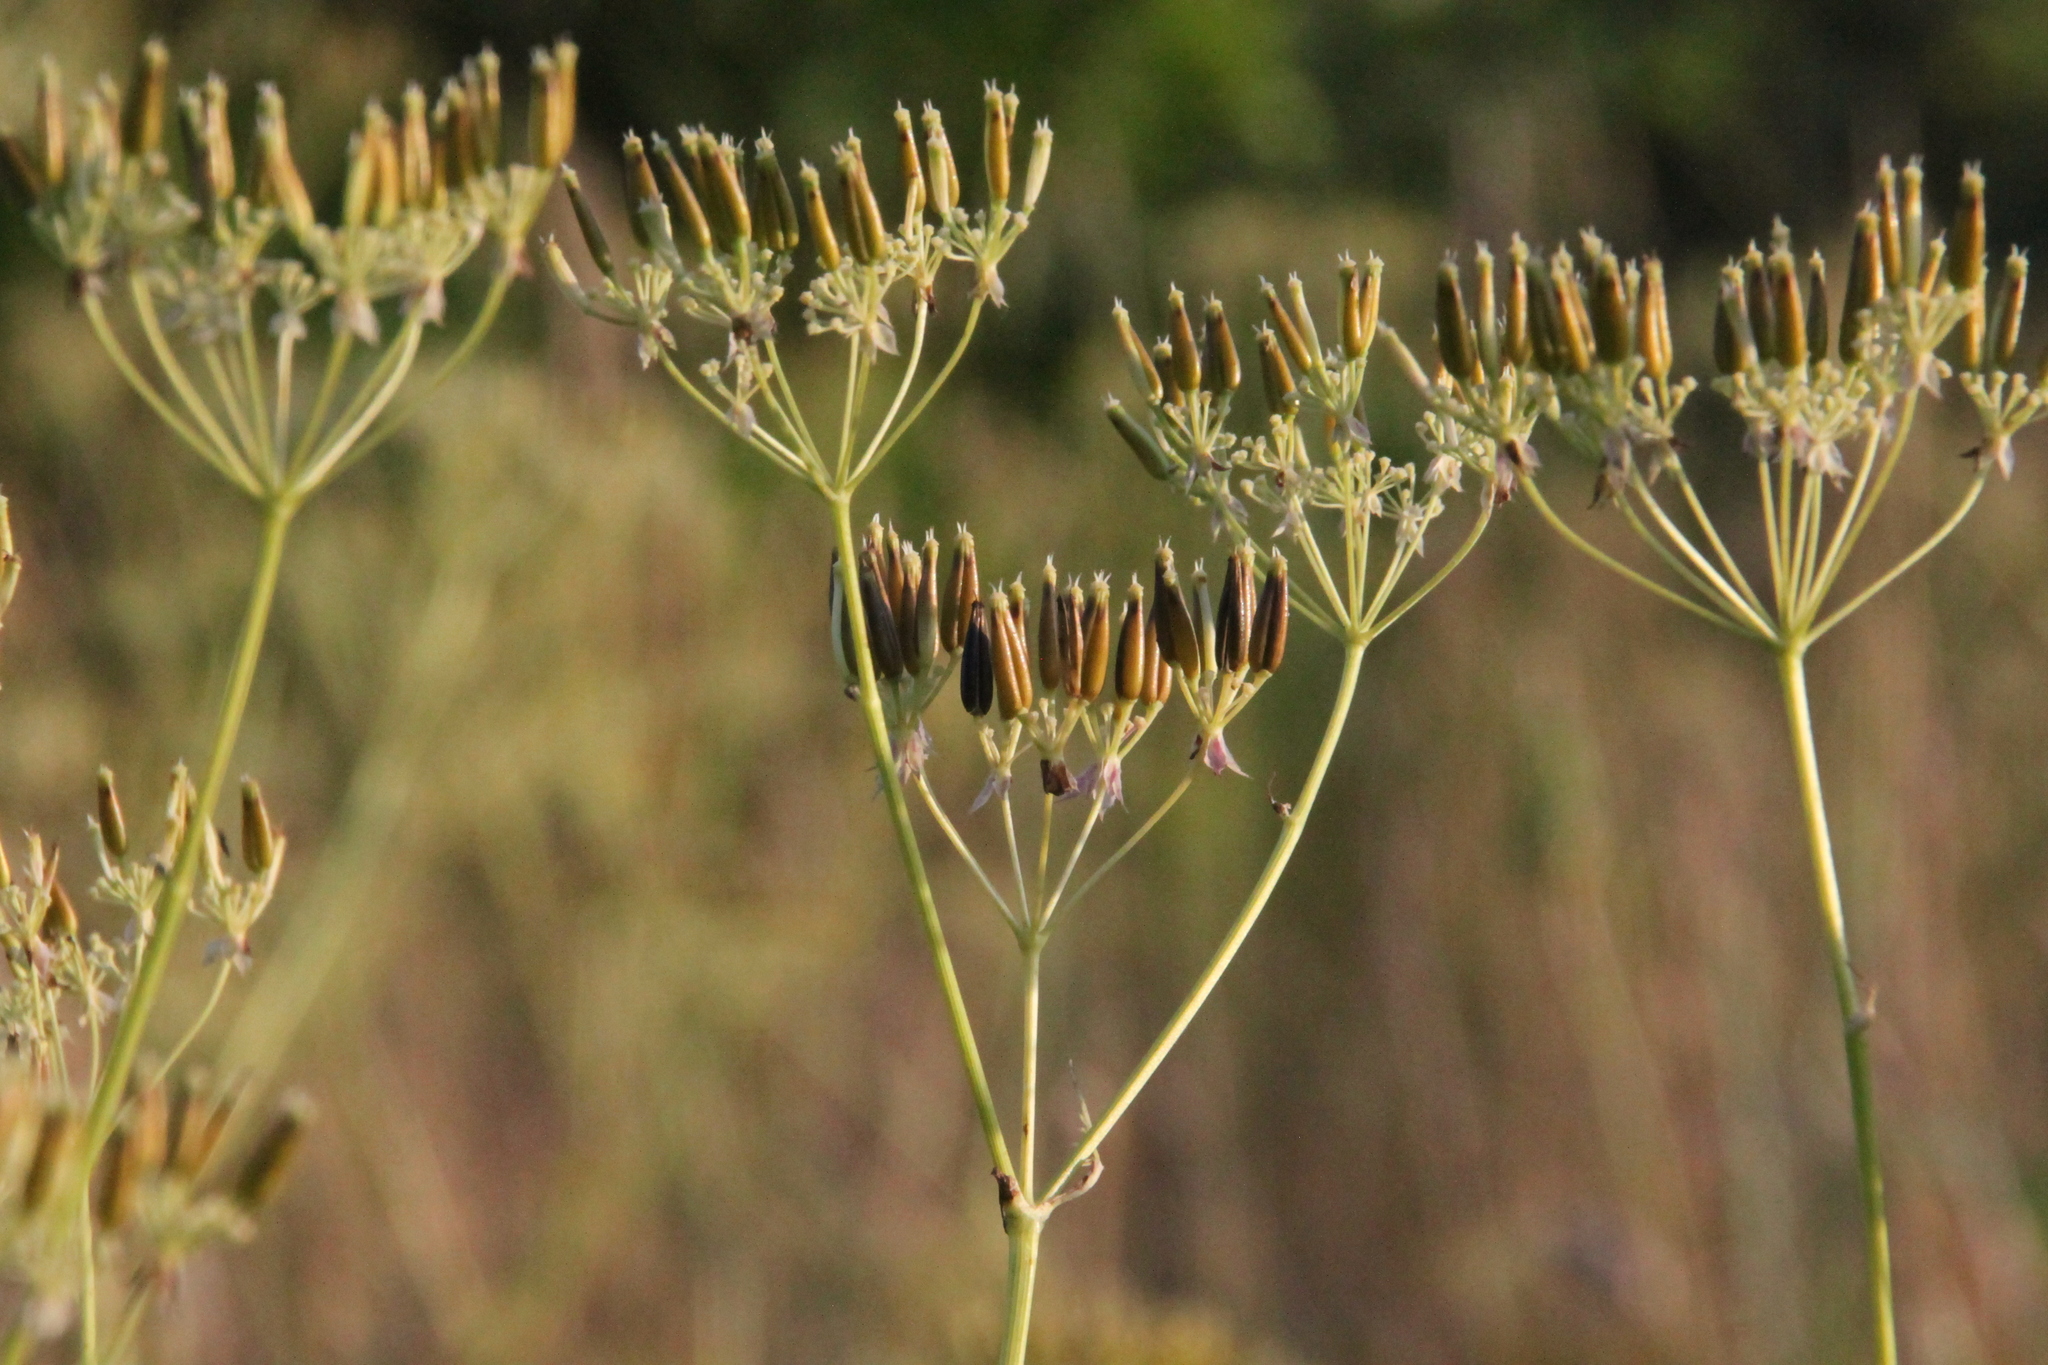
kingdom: Plantae
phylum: Tracheophyta
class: Magnoliopsida
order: Apiales
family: Apiaceae
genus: Anthriscus
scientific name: Anthriscus sylvestris
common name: Cow parsley
